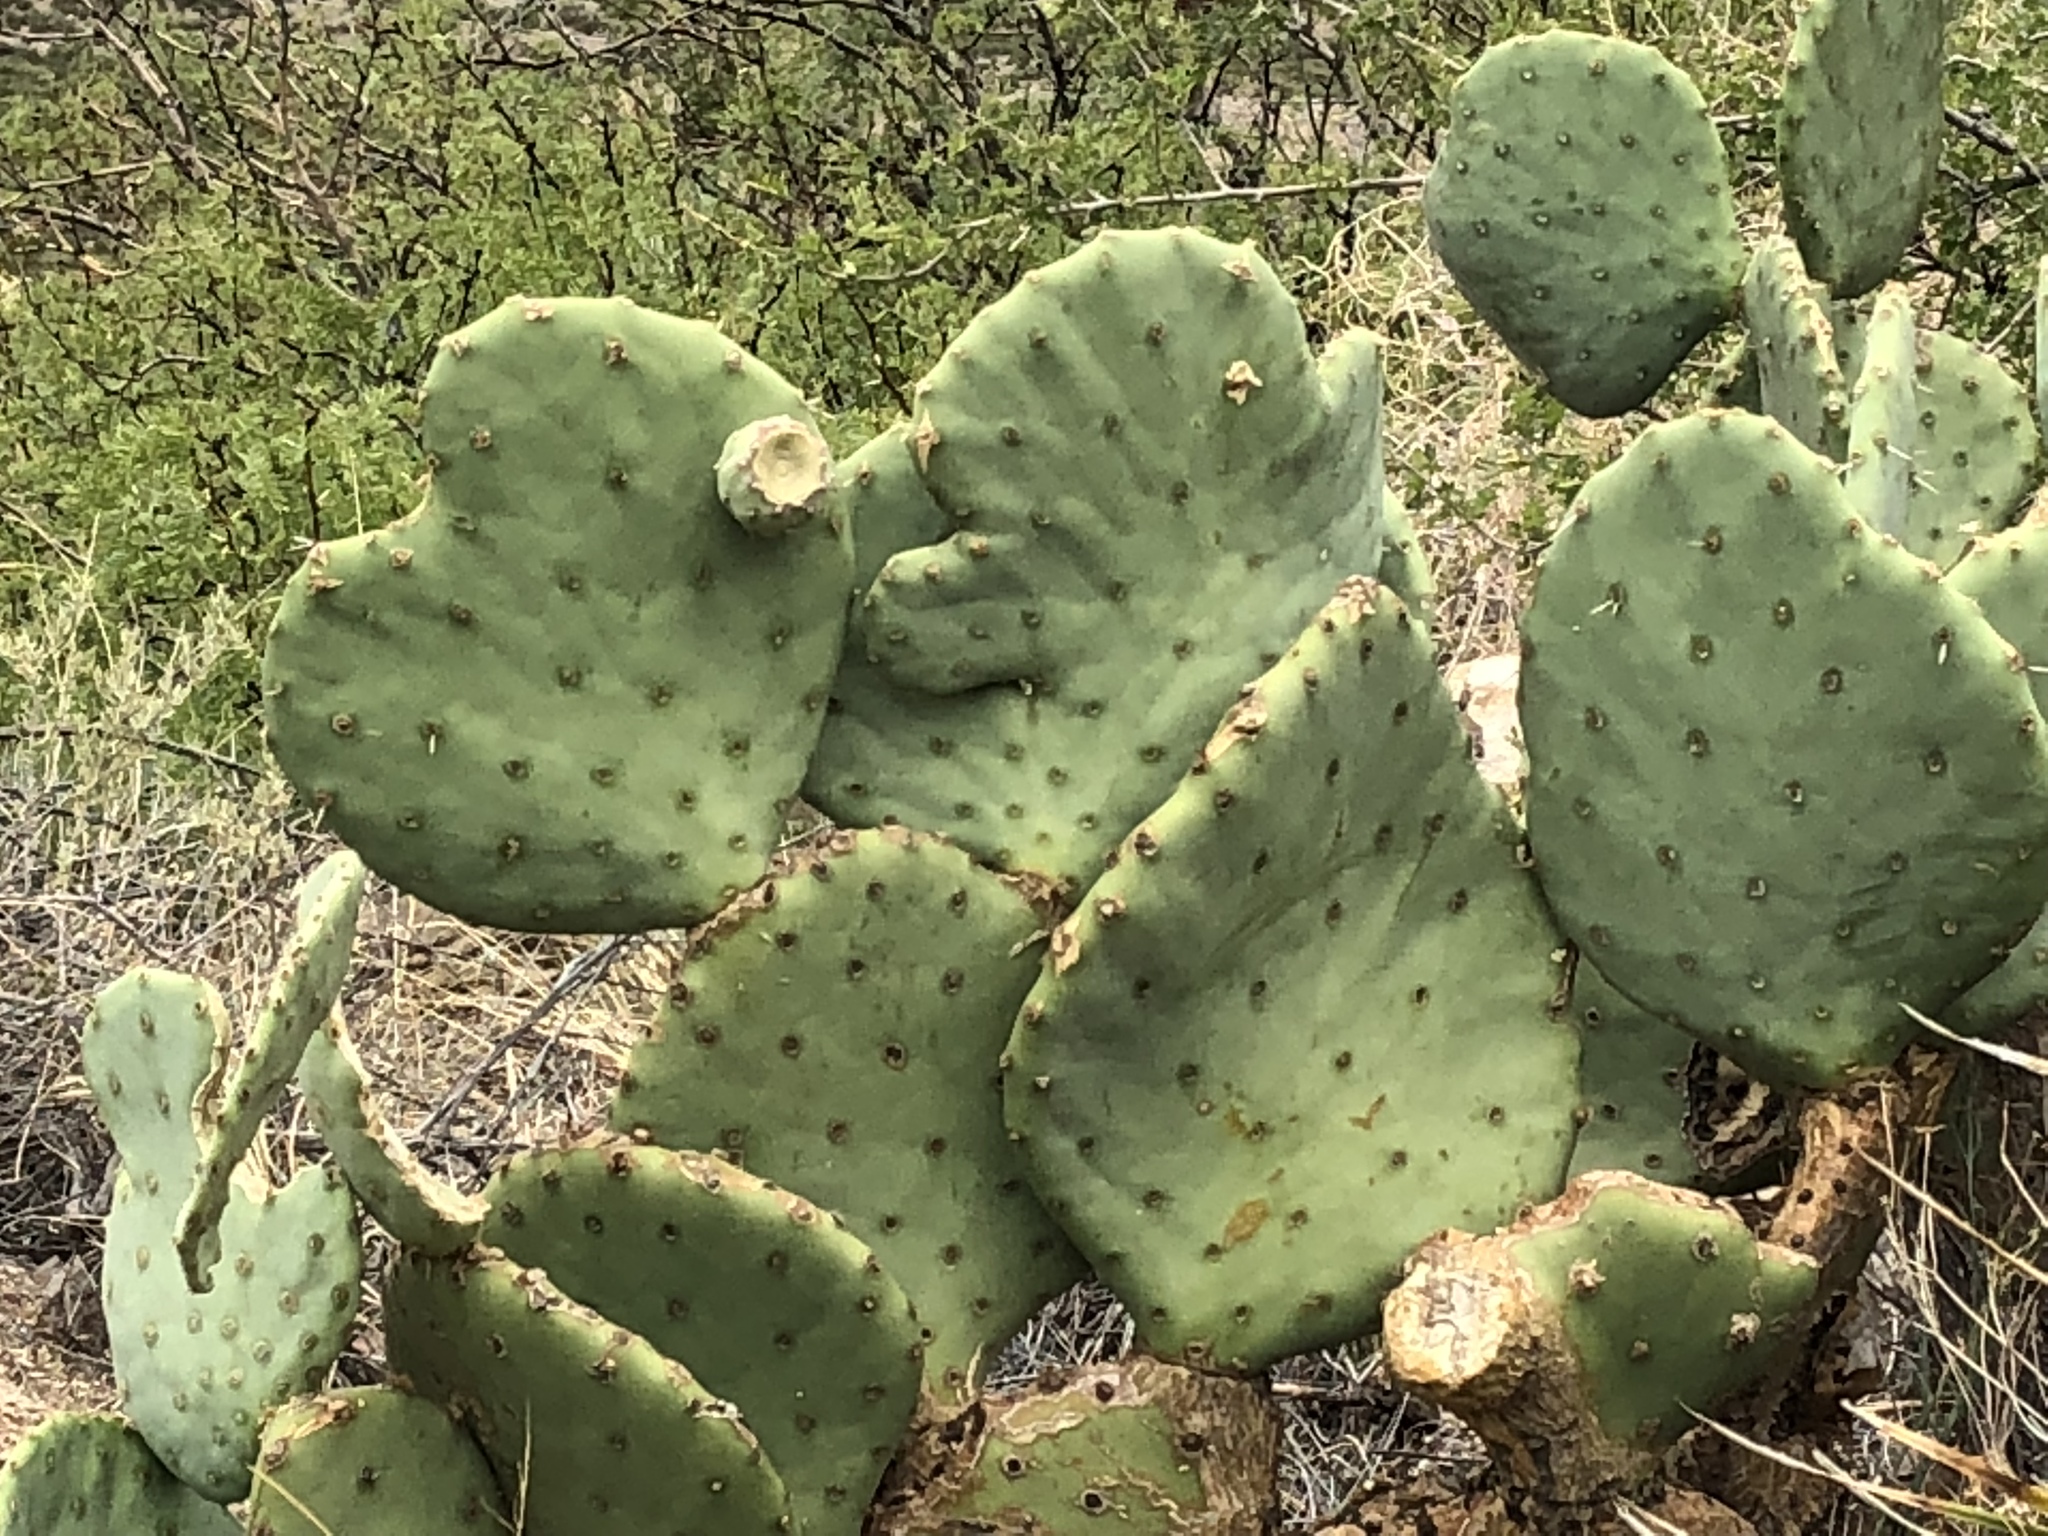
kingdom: Plantae
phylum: Tracheophyta
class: Magnoliopsida
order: Caryophyllales
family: Cactaceae
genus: Opuntia
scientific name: Opuntia engelmannii
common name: Cactus-apple
